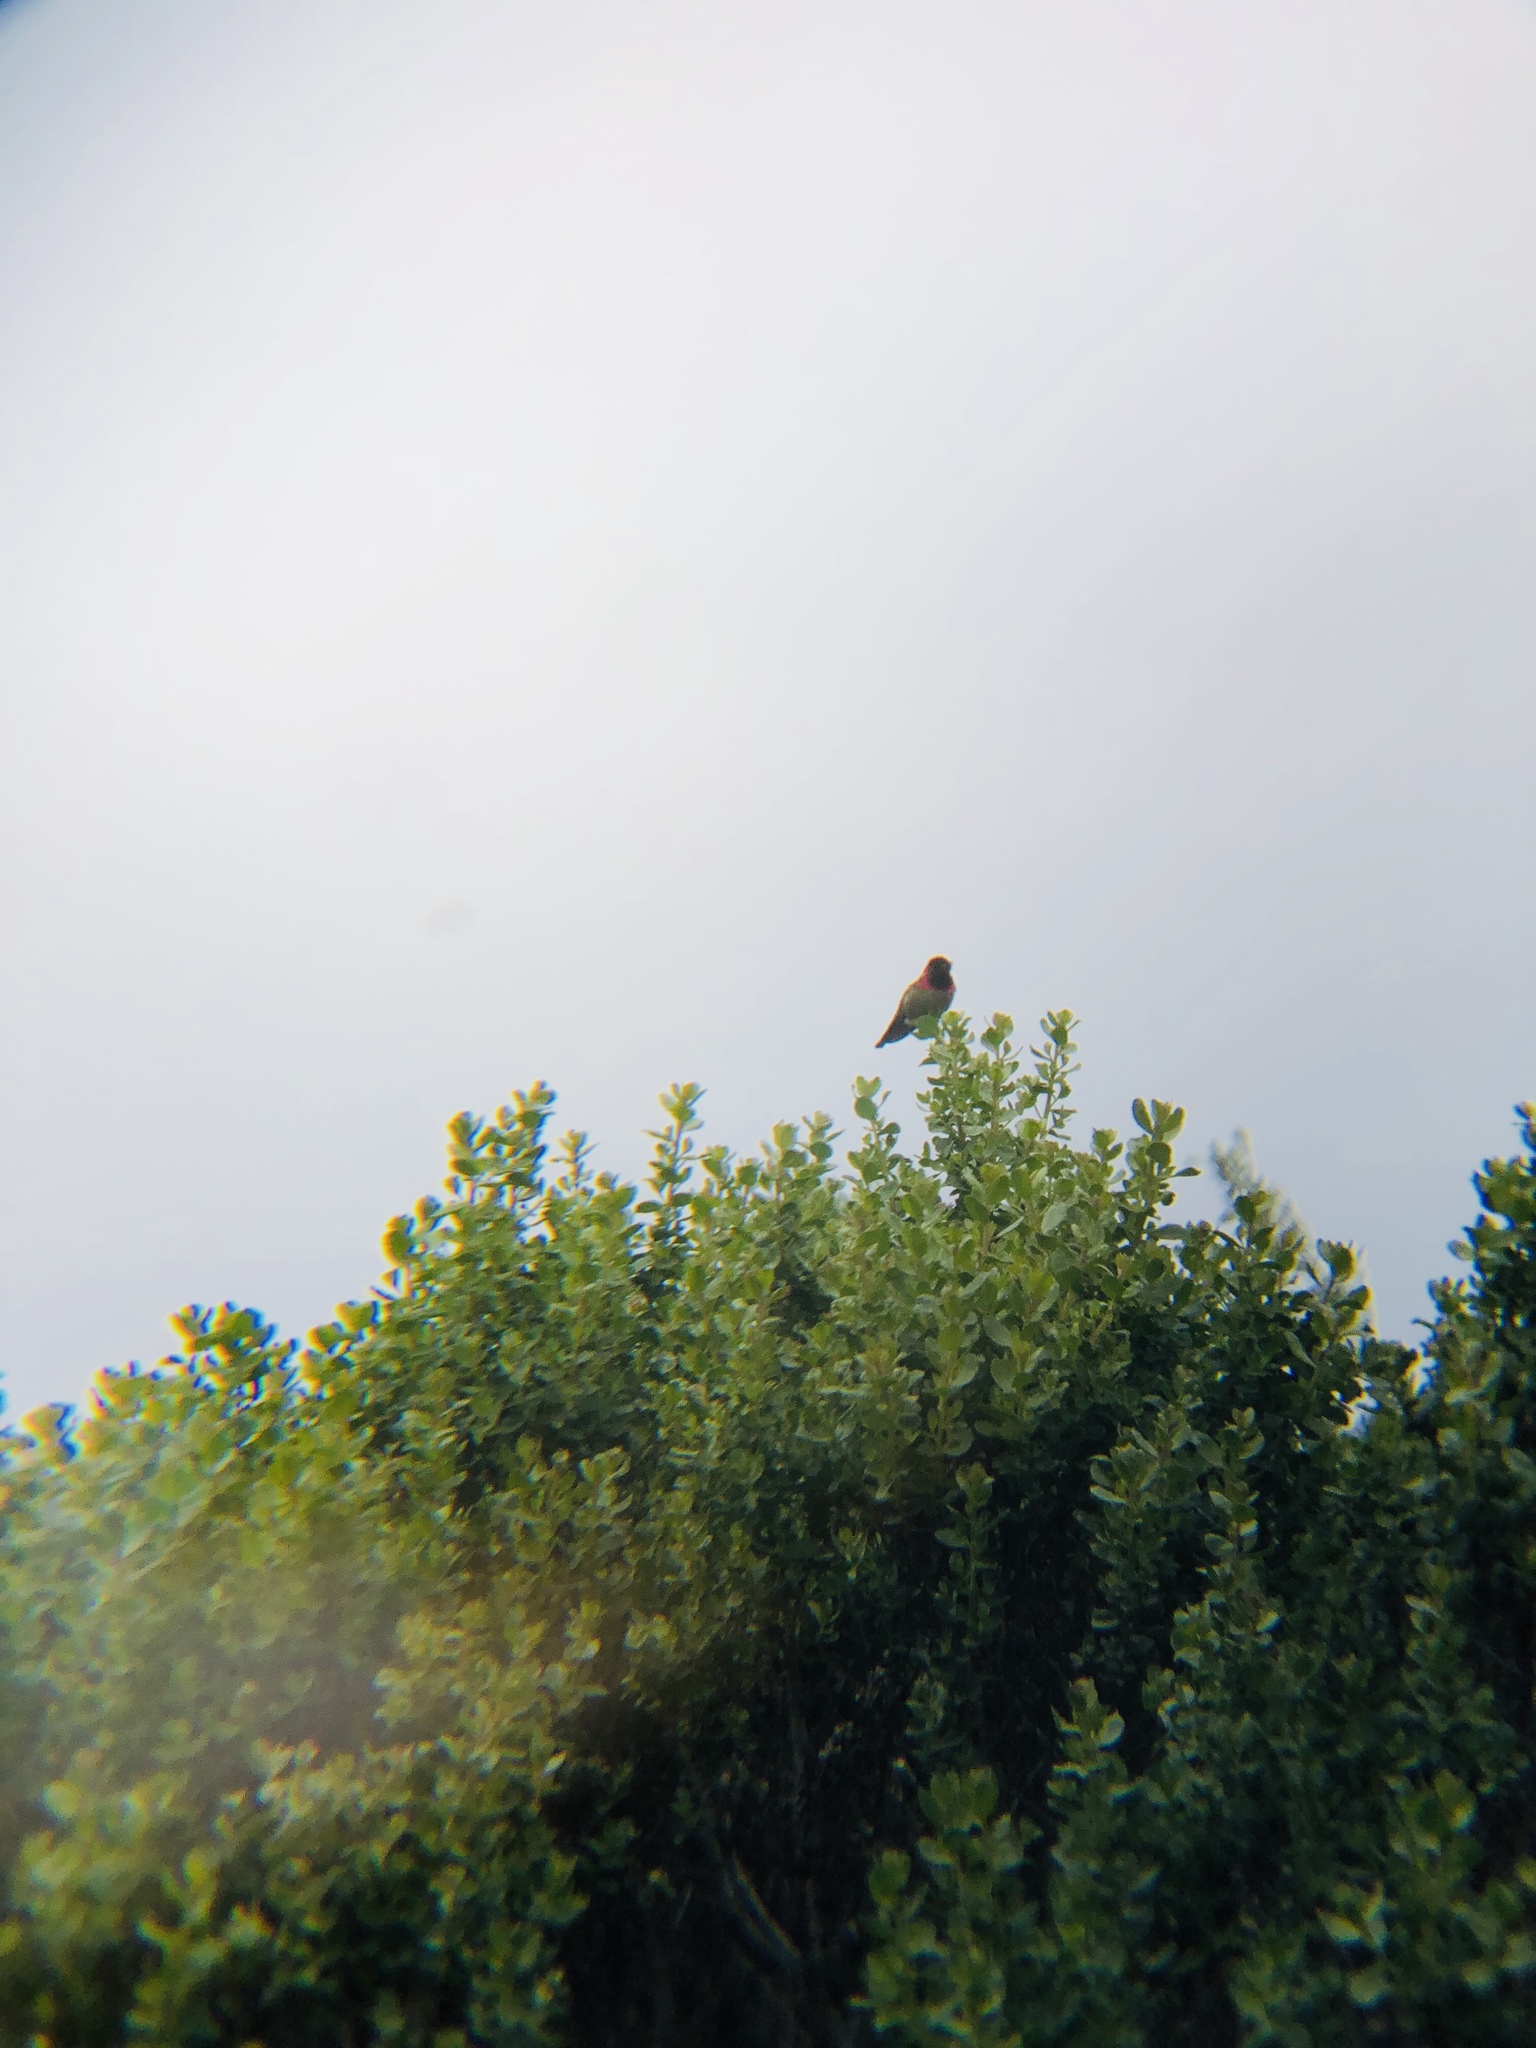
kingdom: Animalia
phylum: Chordata
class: Aves
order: Apodiformes
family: Trochilidae
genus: Calypte
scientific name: Calypte anna
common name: Anna's hummingbird
